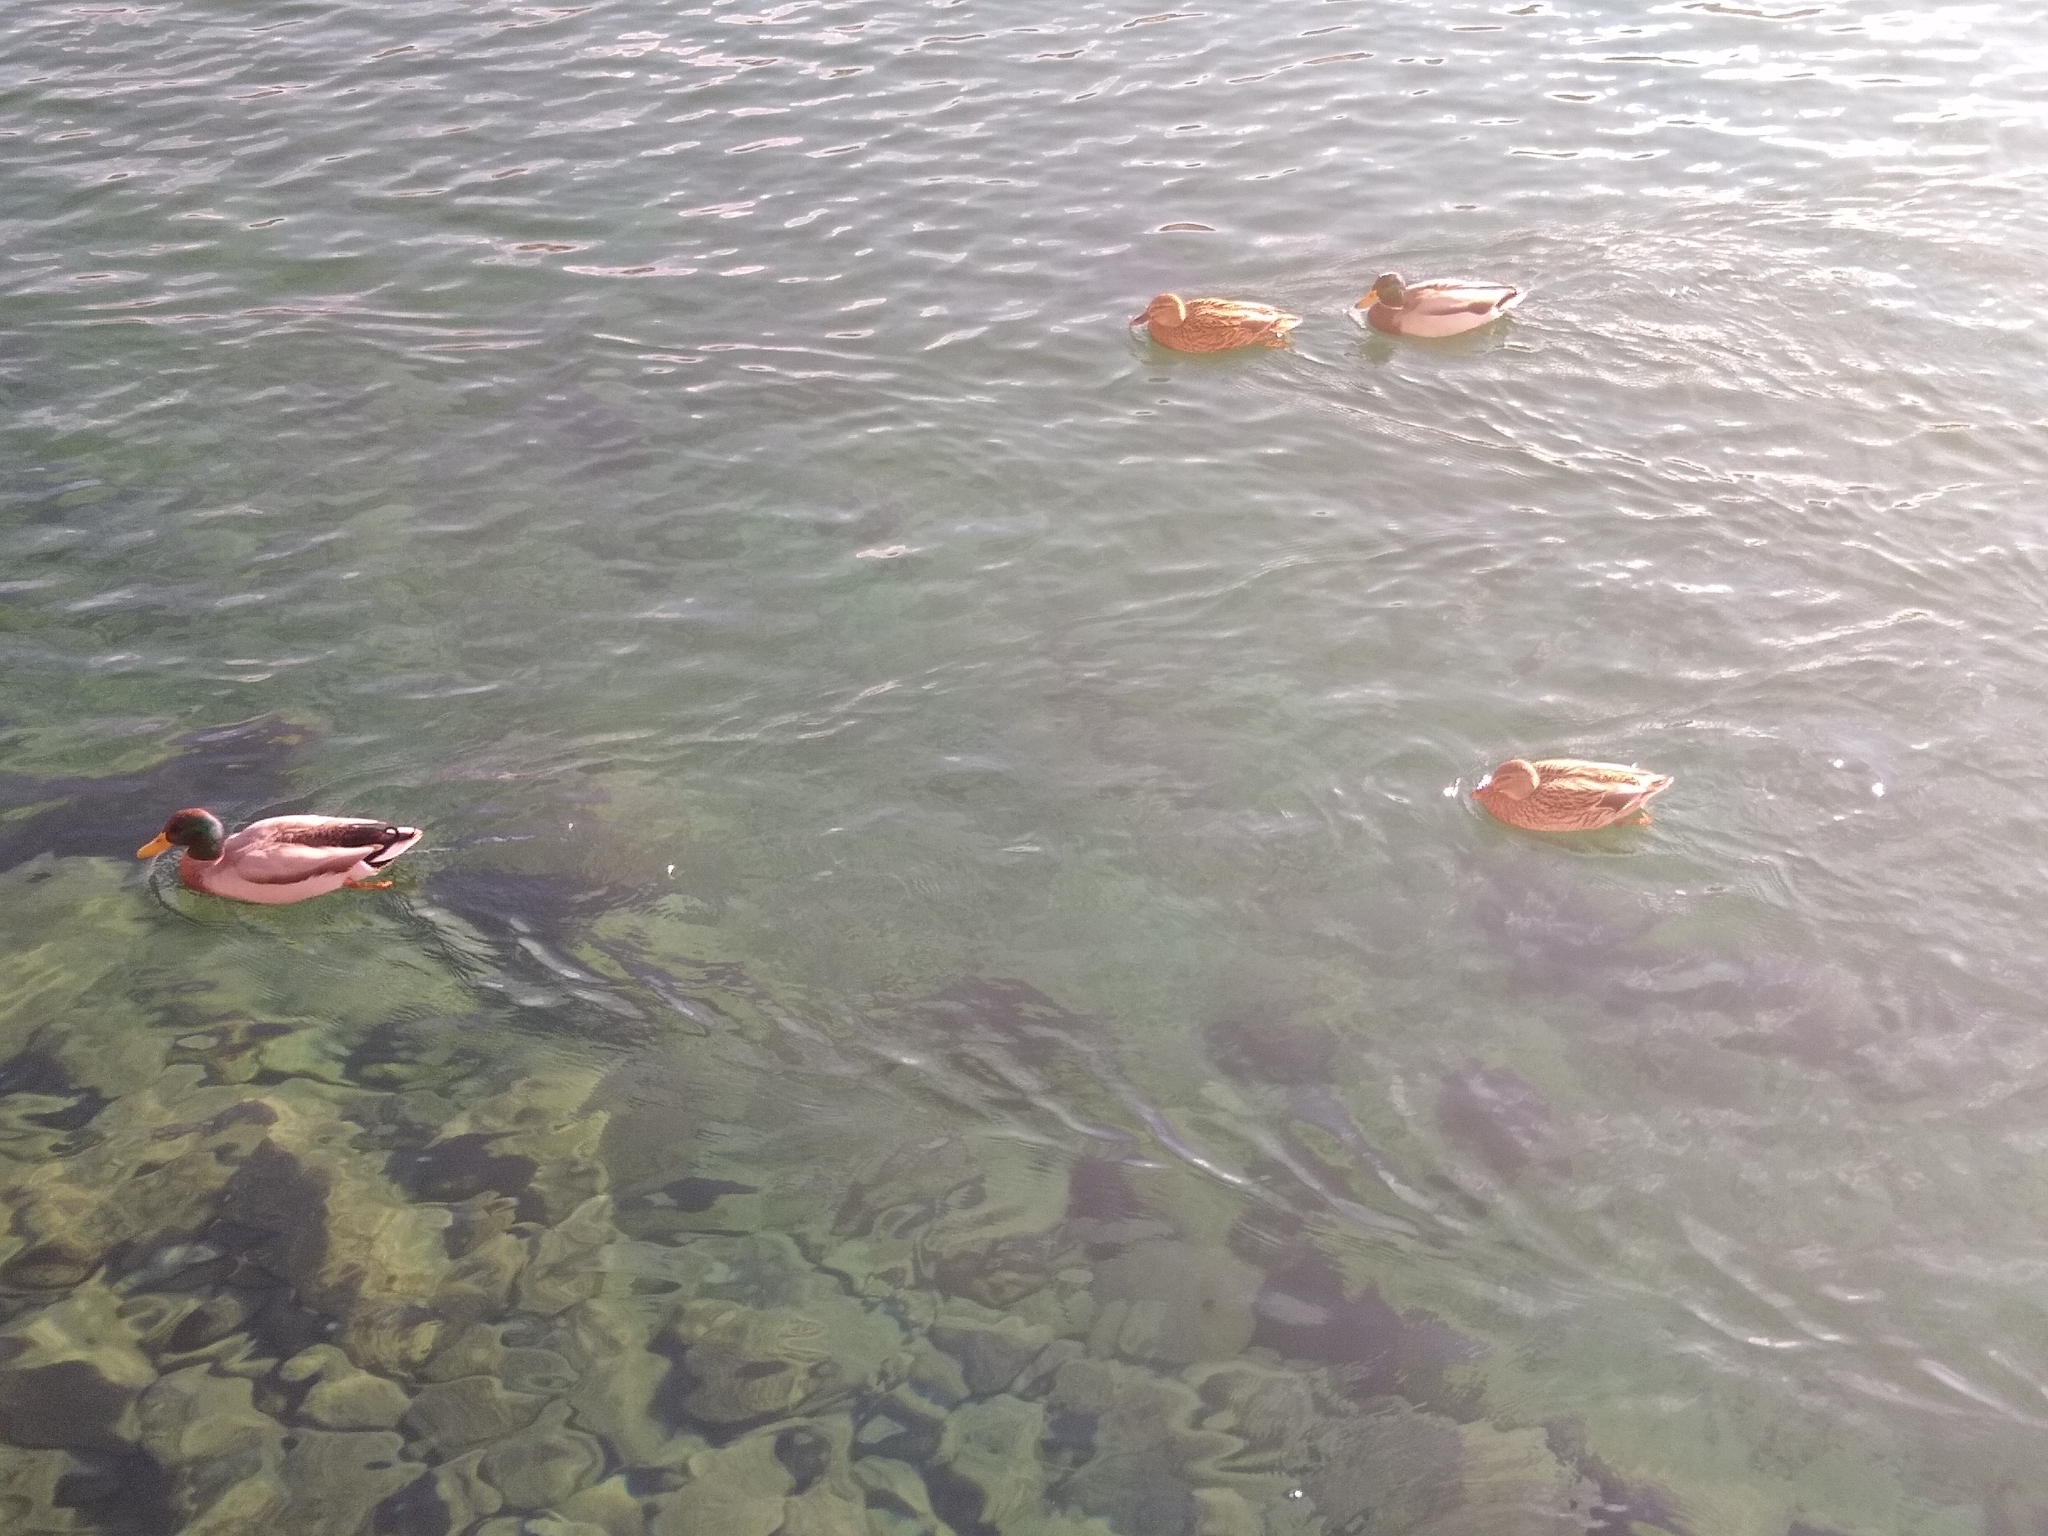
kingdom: Animalia
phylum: Chordata
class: Aves
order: Anseriformes
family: Anatidae
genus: Anas
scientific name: Anas platyrhynchos
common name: Mallard
